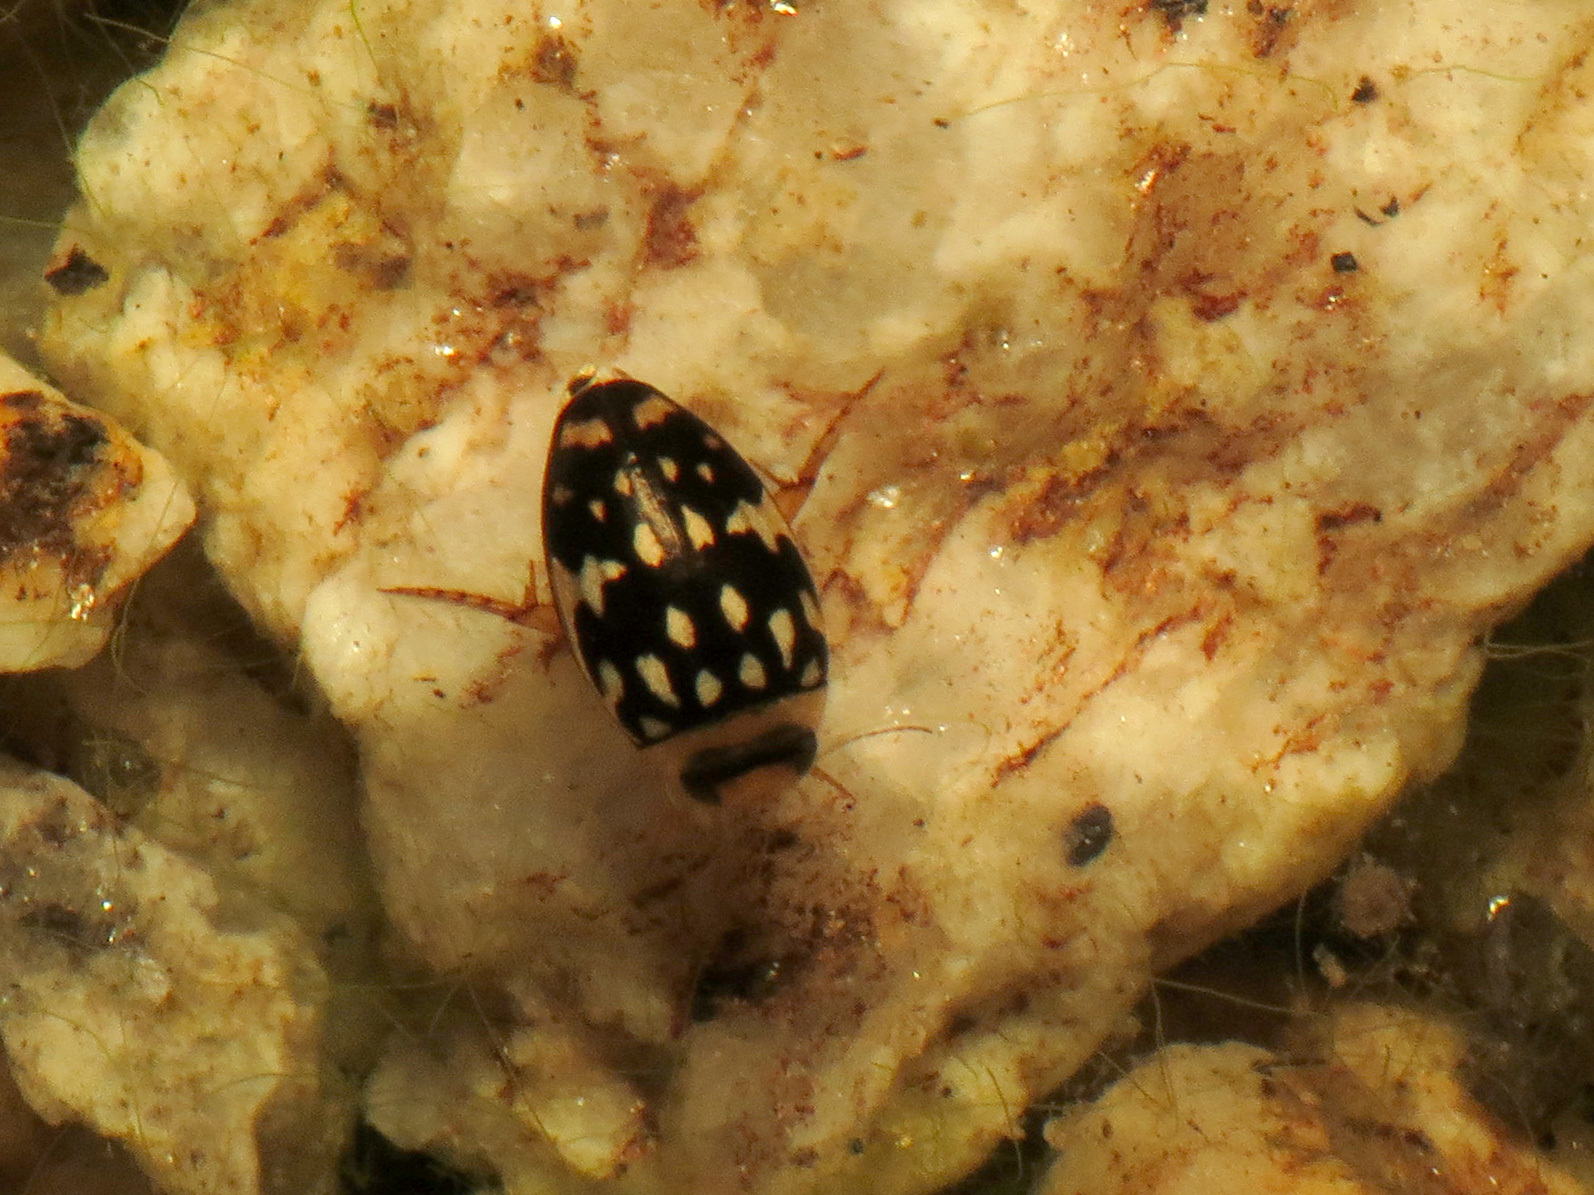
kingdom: Animalia
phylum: Arthropoda
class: Insecta
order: Coleoptera
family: Dytiscidae
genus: Laccophilus
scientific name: Laccophilus pictus
